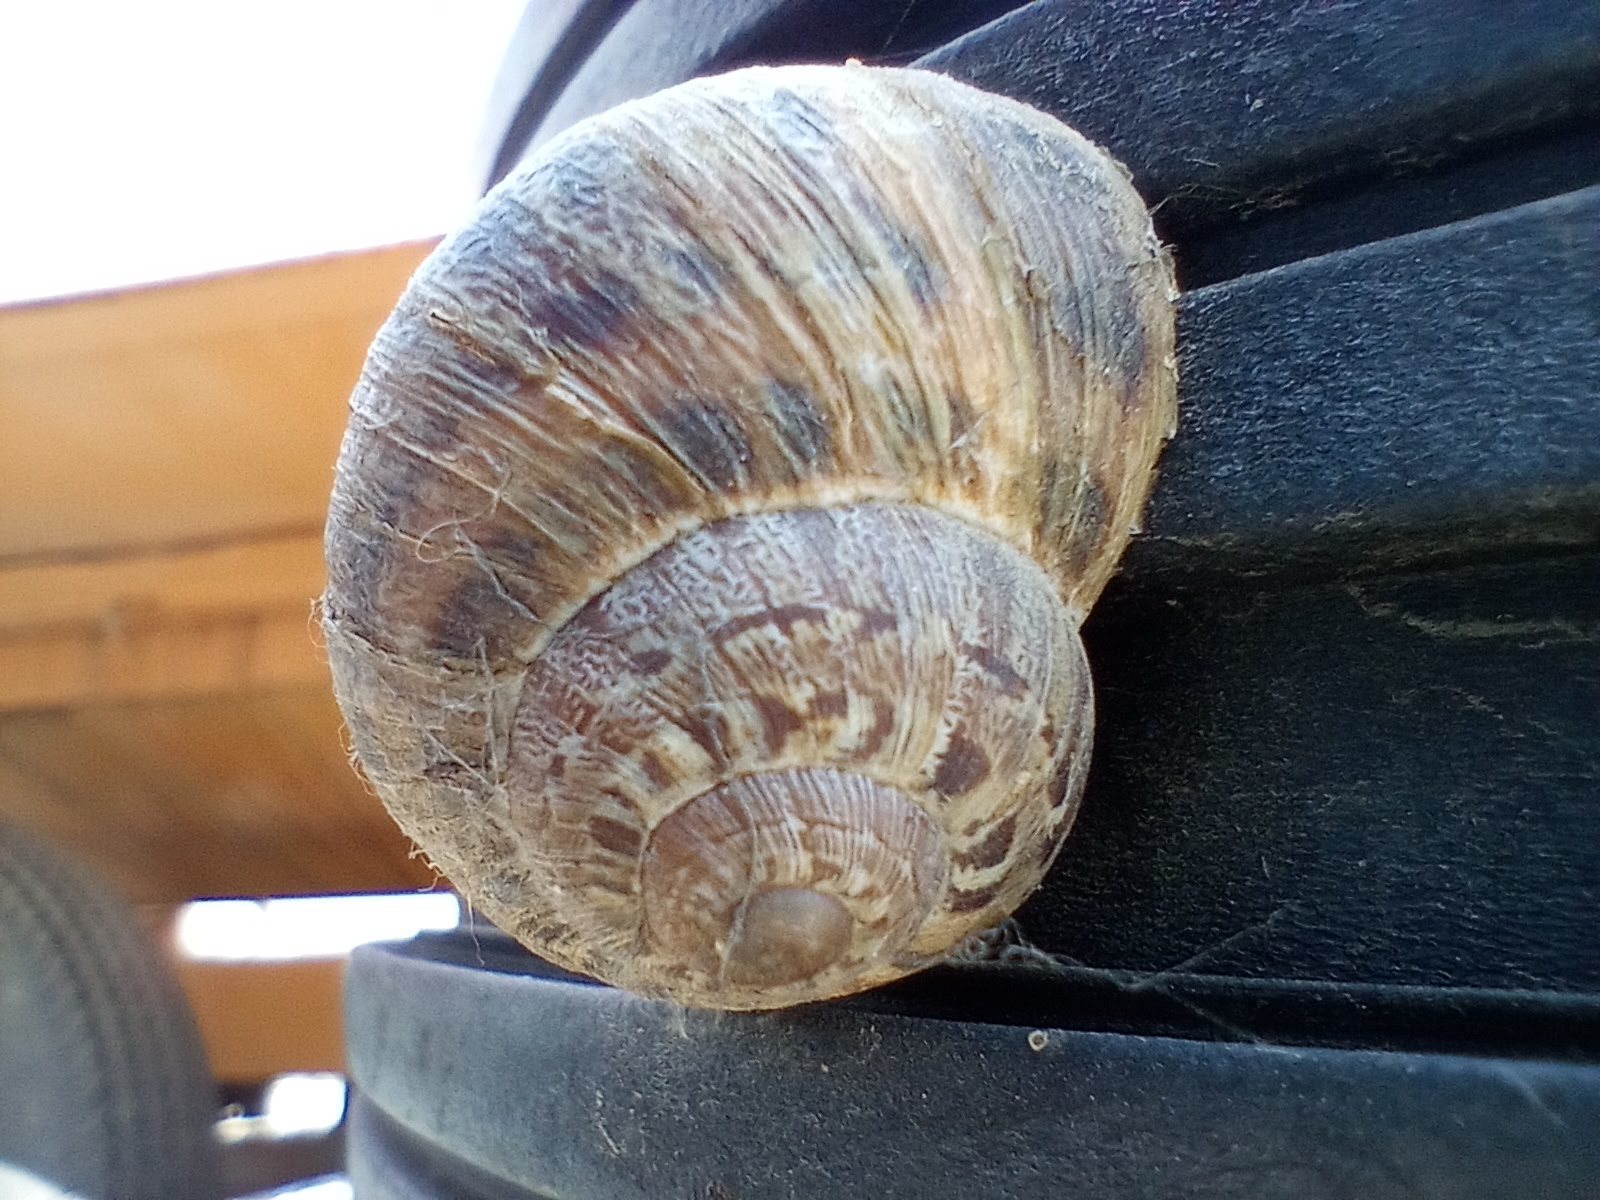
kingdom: Animalia
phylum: Mollusca
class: Gastropoda
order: Stylommatophora
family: Helicidae
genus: Cornu
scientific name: Cornu aspersum
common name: Brown garden snail
